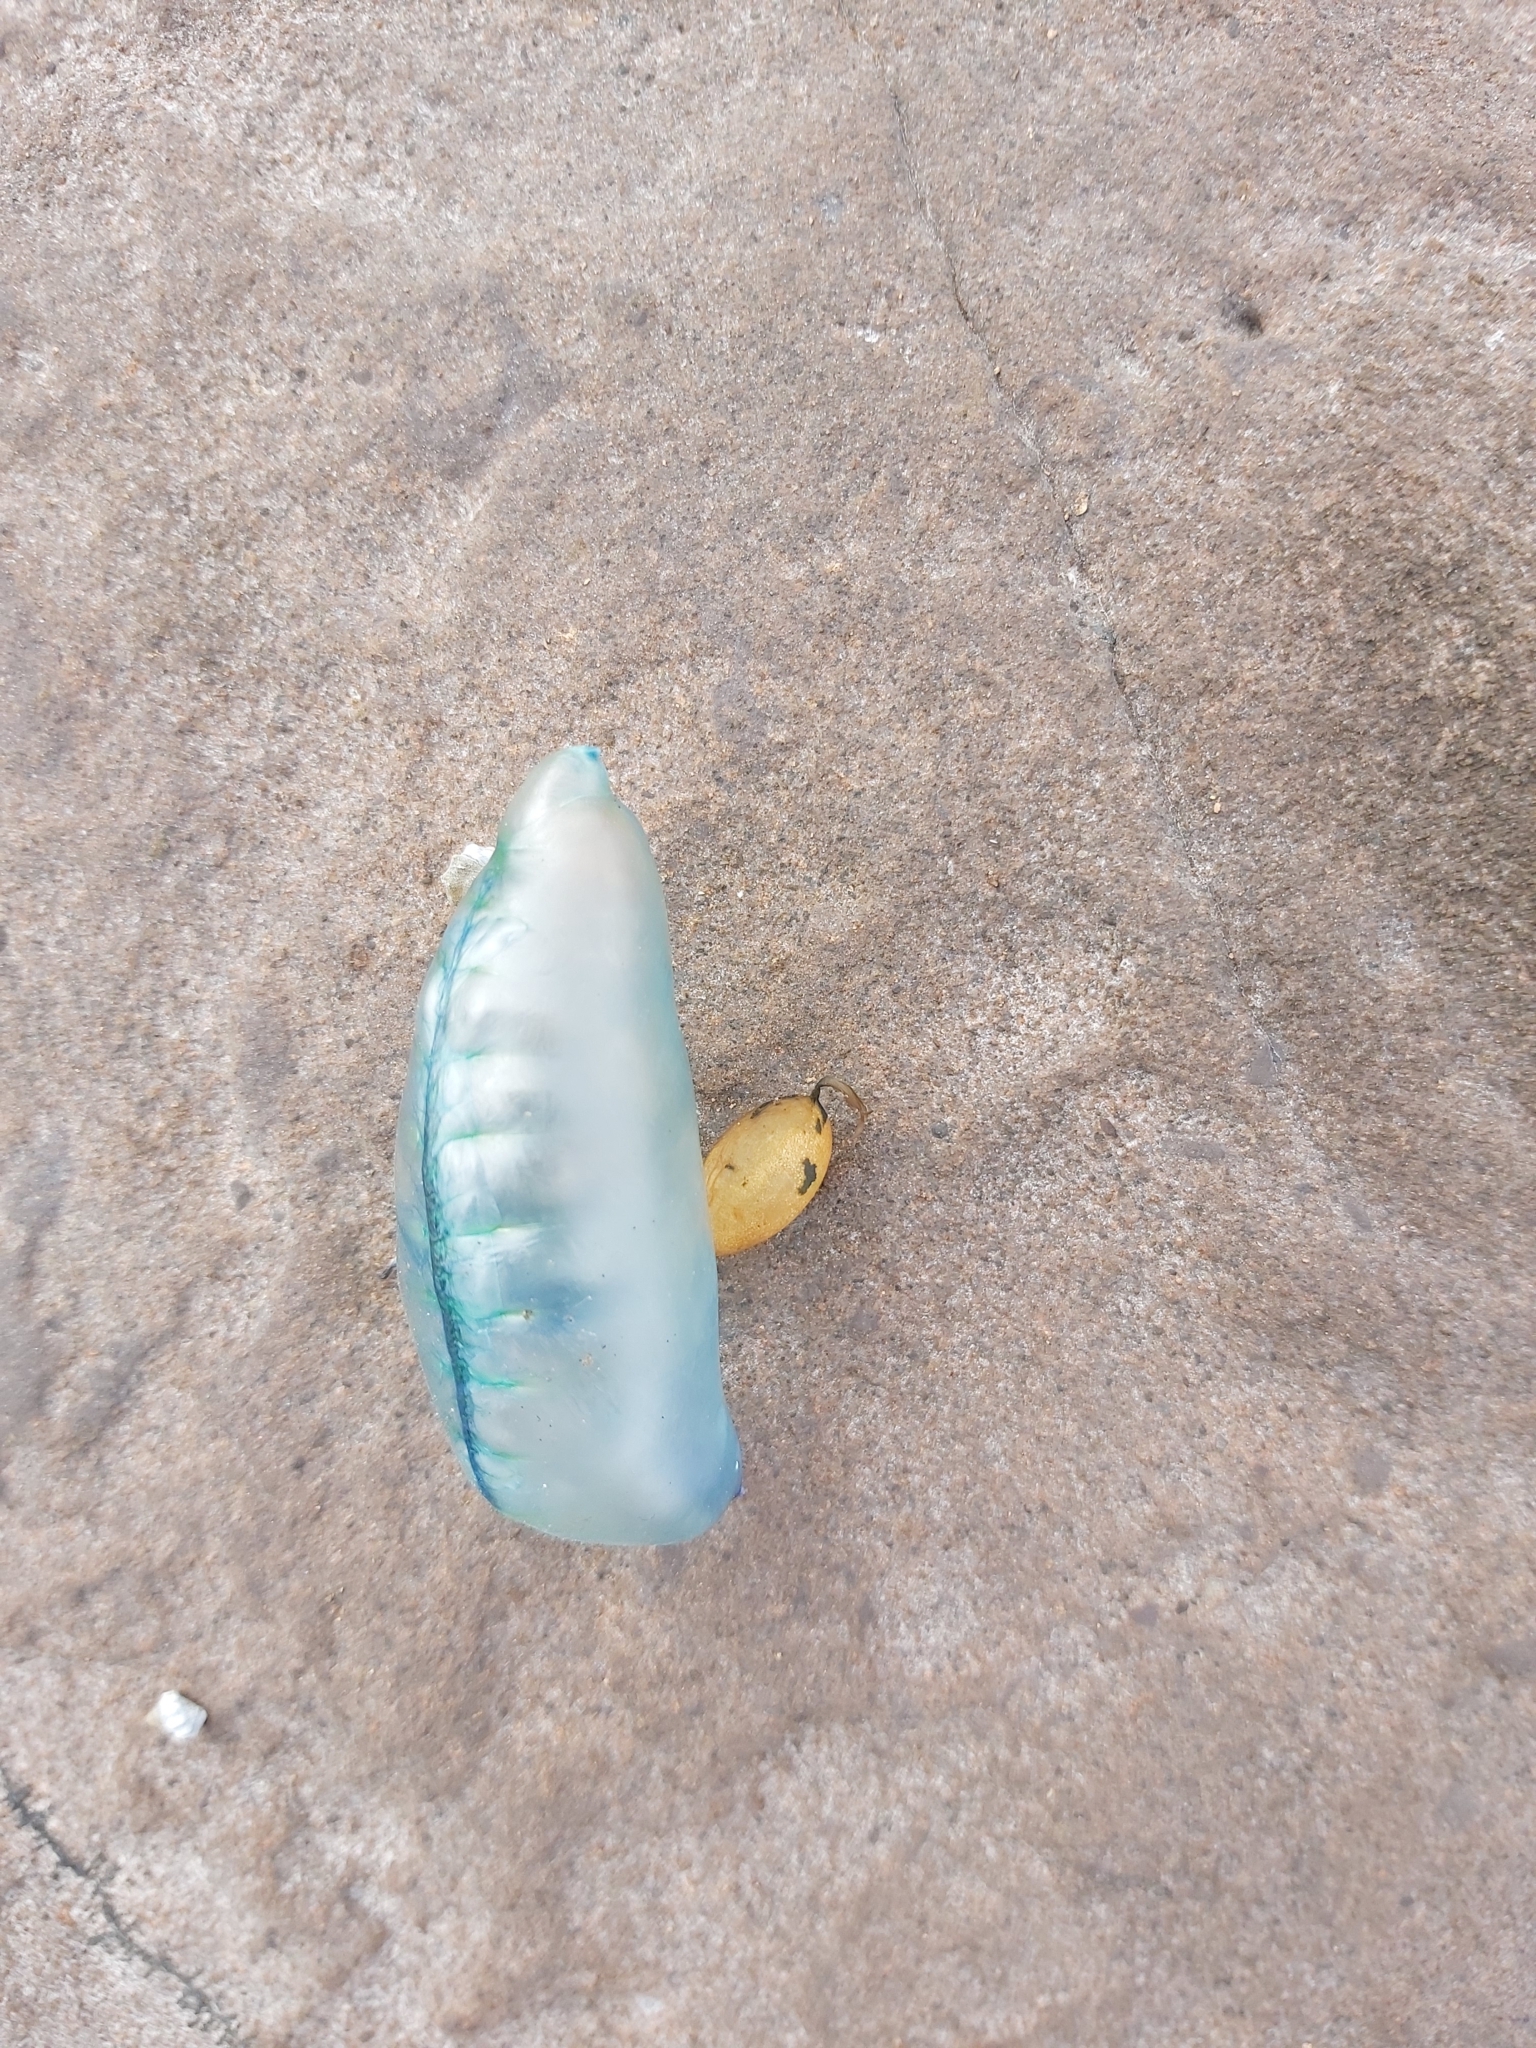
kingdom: Animalia
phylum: Cnidaria
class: Hydrozoa
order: Siphonophorae
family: Physaliidae
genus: Physalia
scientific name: Physalia physalis
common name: Portuguese man-of-war
